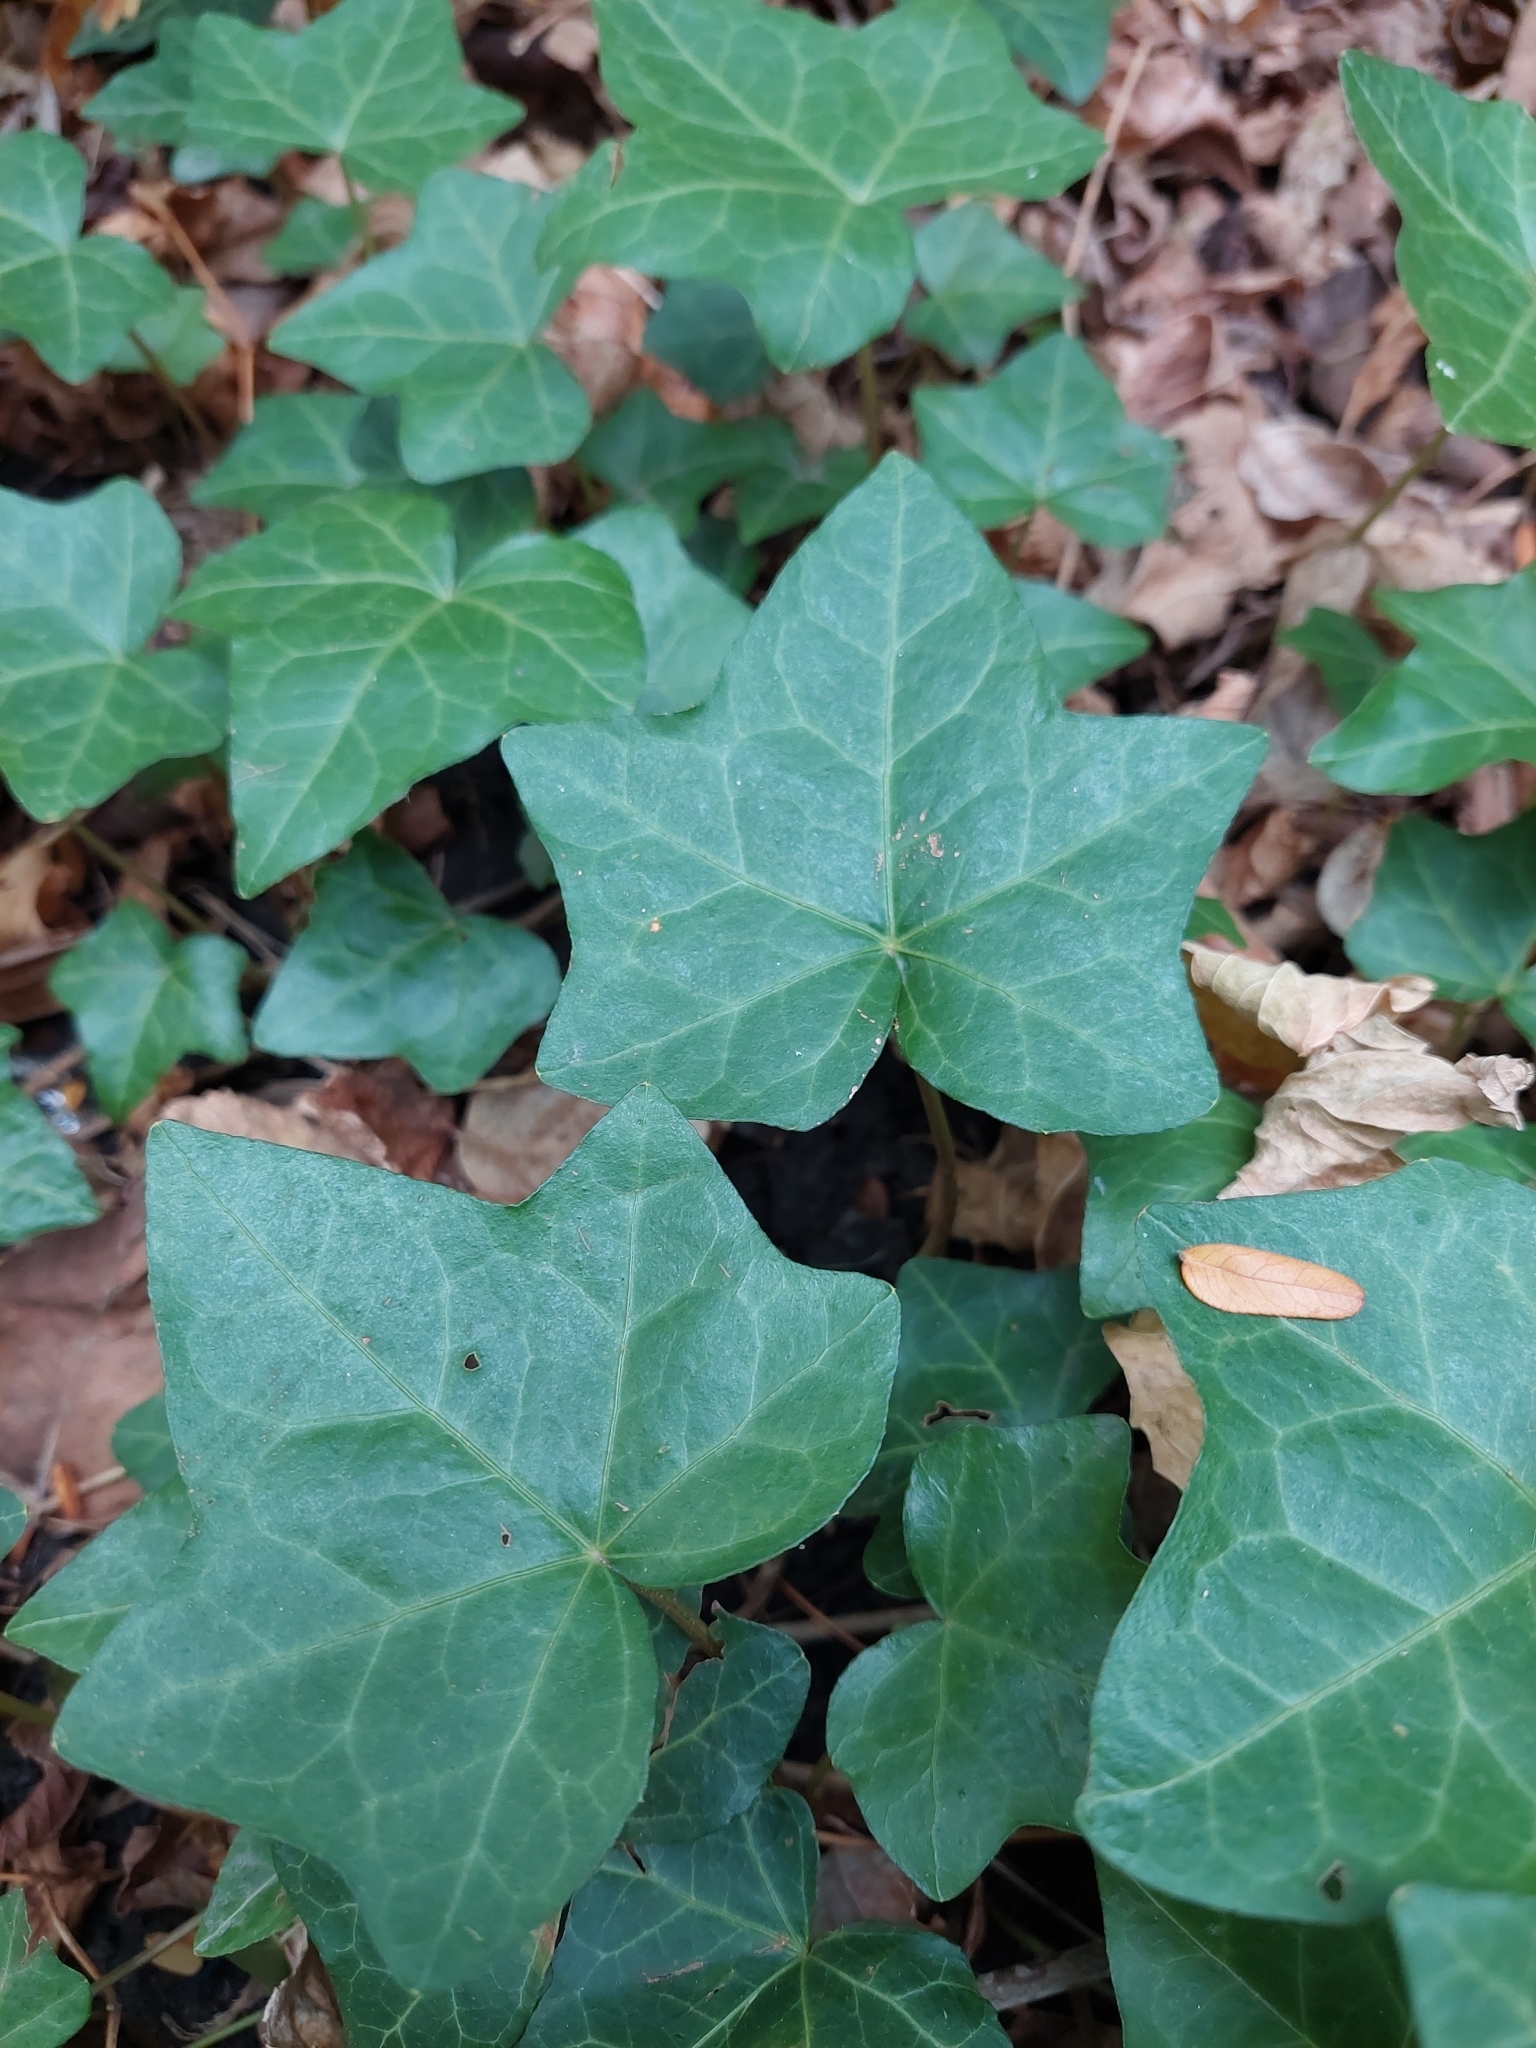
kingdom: Plantae
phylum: Tracheophyta
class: Magnoliopsida
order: Apiales
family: Araliaceae
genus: Hedera
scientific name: Hedera helix
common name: Ivy
